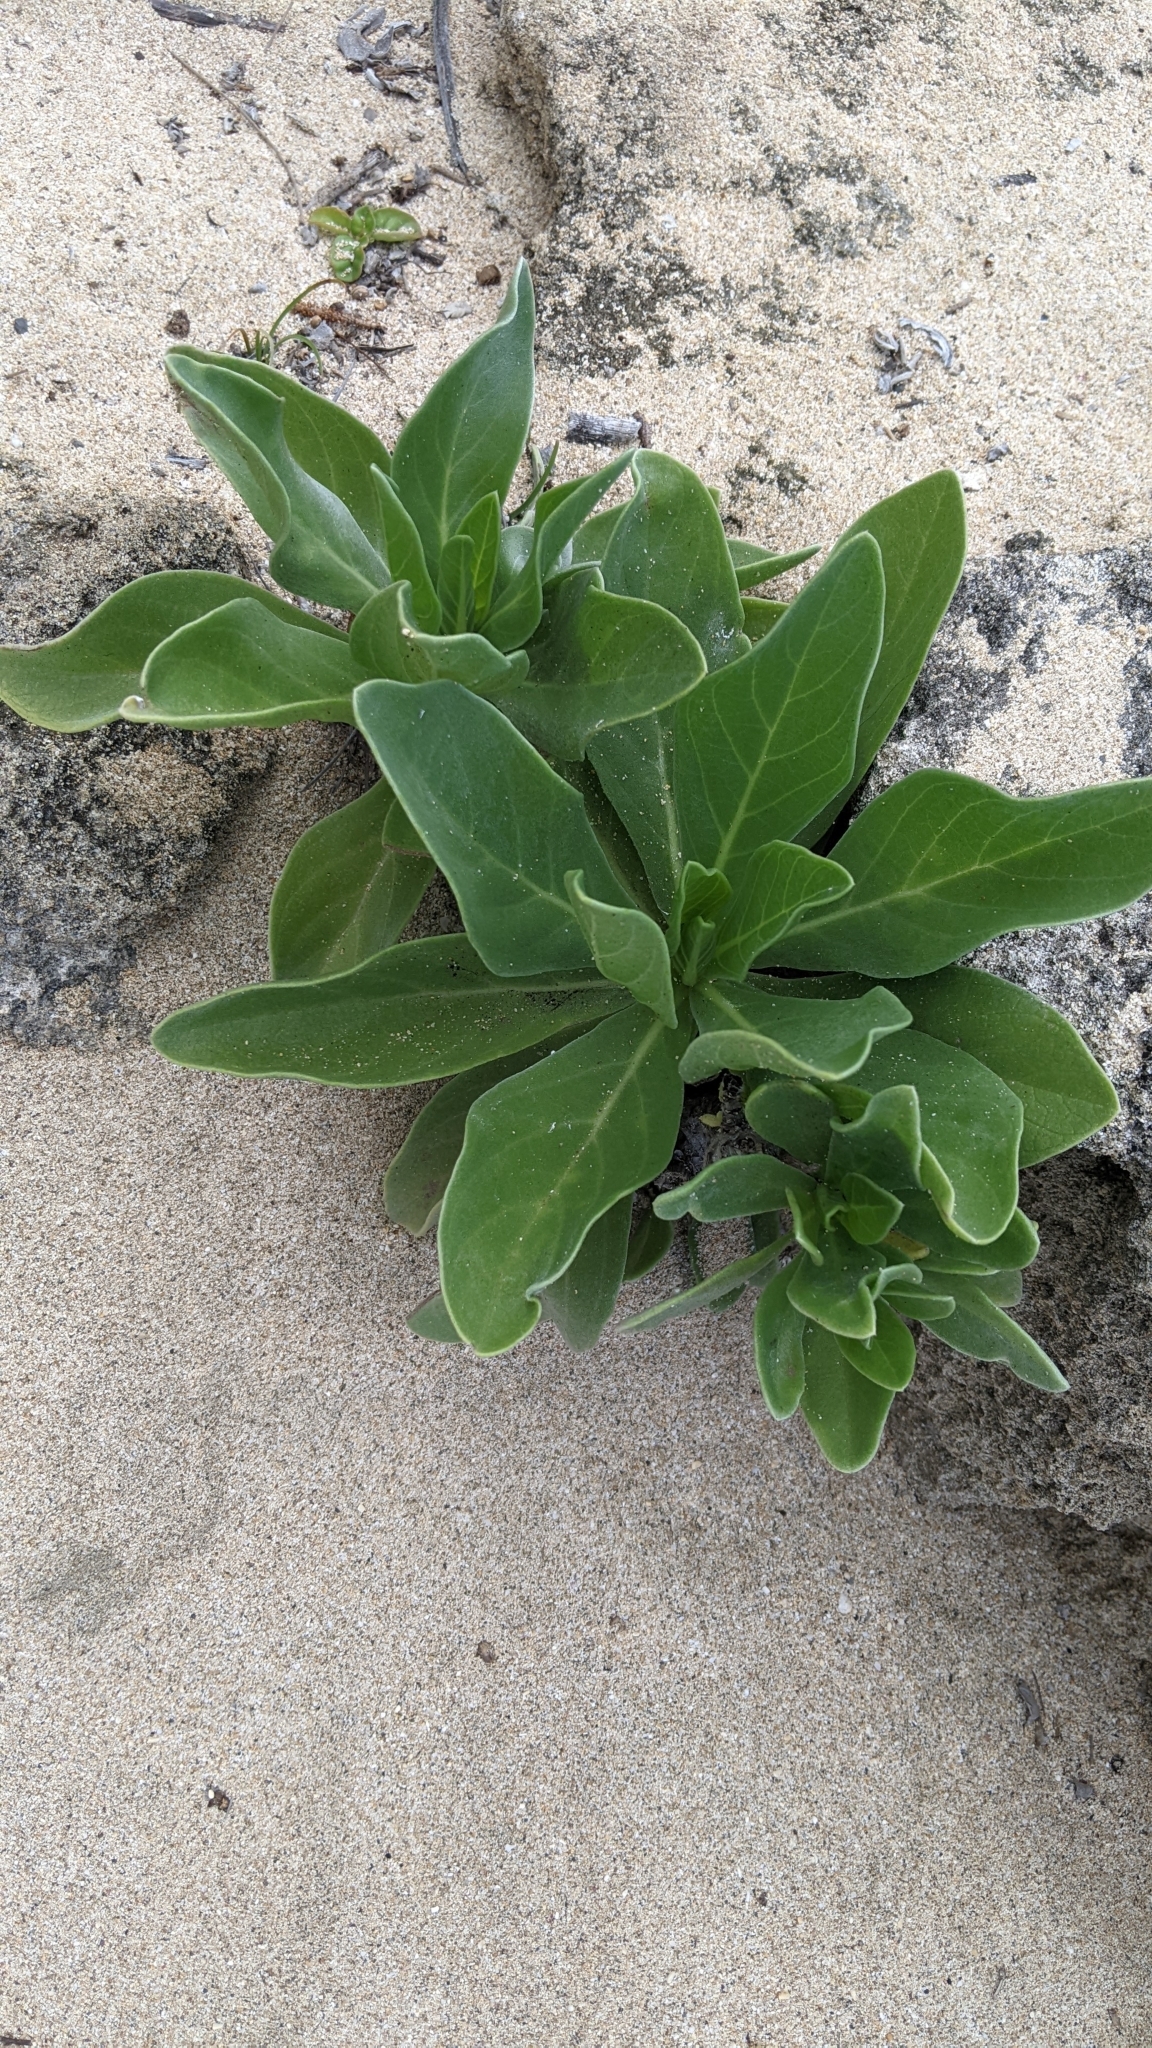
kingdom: Plantae
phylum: Tracheophyta
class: Magnoliopsida
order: Boraginales
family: Heliotropiaceae
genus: Heliotropium
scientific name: Heliotropium velutinum
